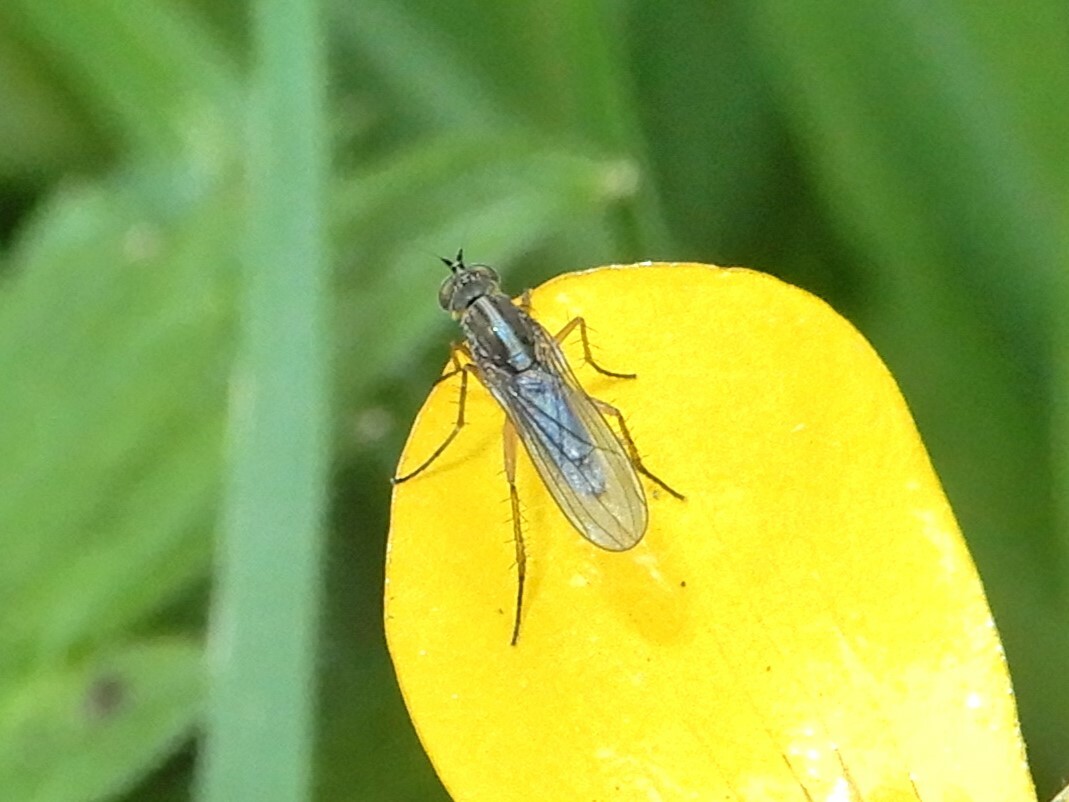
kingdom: Animalia
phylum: Arthropoda
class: Insecta
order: Diptera
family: Dolichopodidae
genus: Tetrachaetus
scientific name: Tetrachaetus bipunctatus
